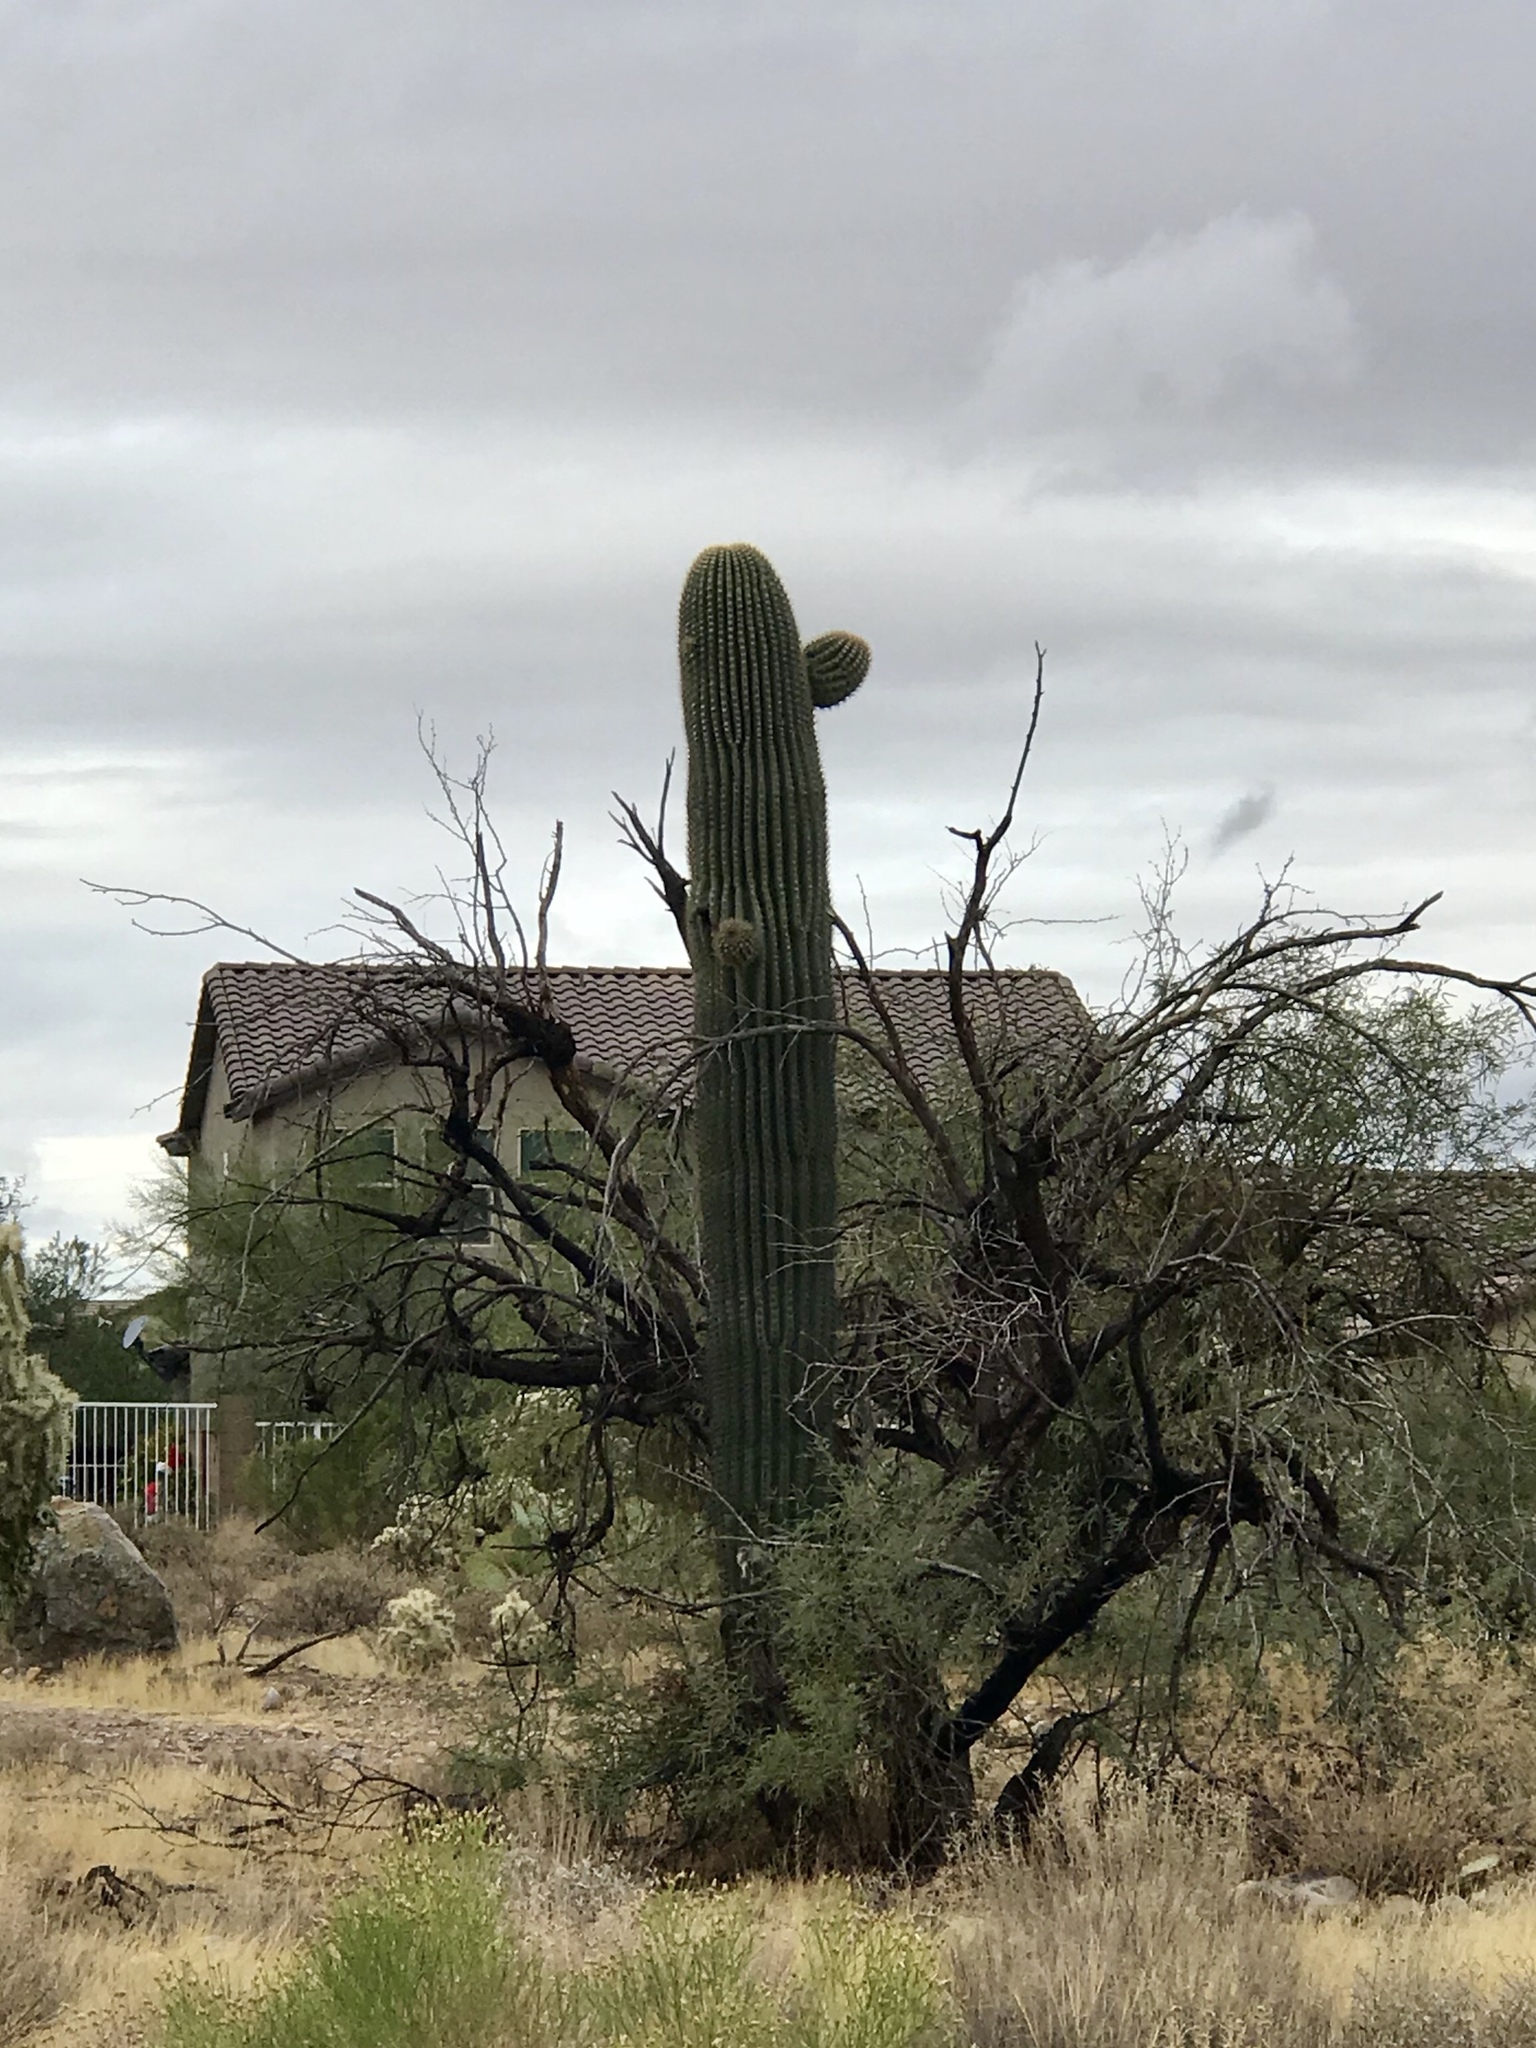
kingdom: Plantae
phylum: Tracheophyta
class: Magnoliopsida
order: Caryophyllales
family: Cactaceae
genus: Carnegiea
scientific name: Carnegiea gigantea
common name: Saguaro
